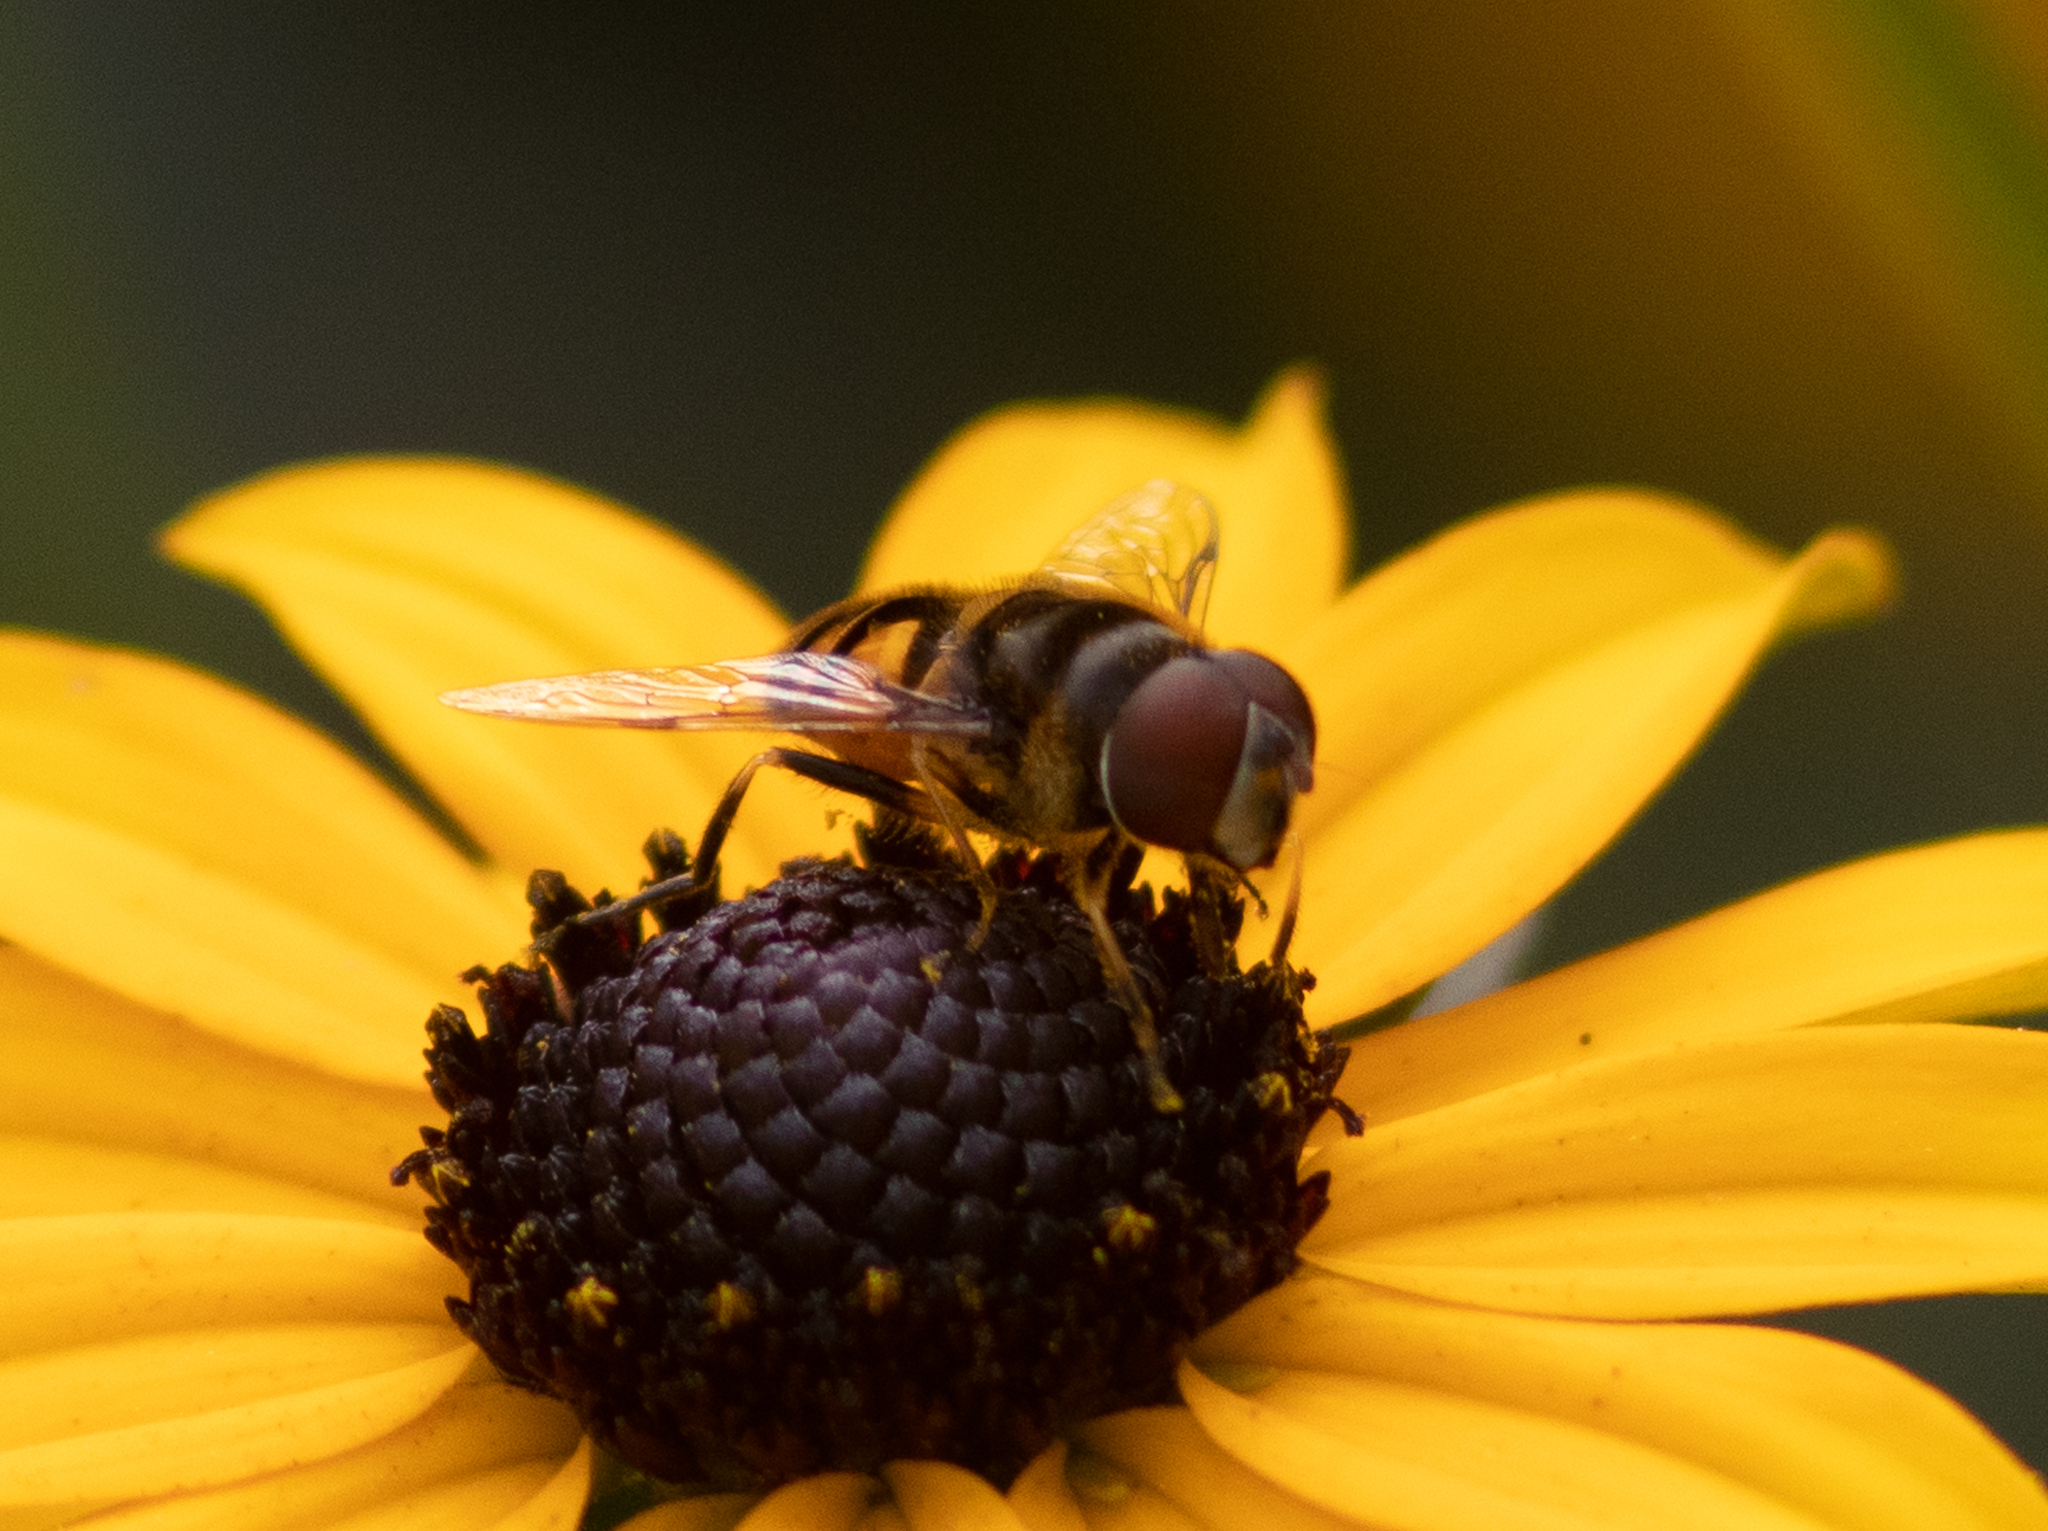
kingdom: Animalia
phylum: Arthropoda
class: Insecta
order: Diptera
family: Syrphidae
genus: Eristalis
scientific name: Eristalis transversa
